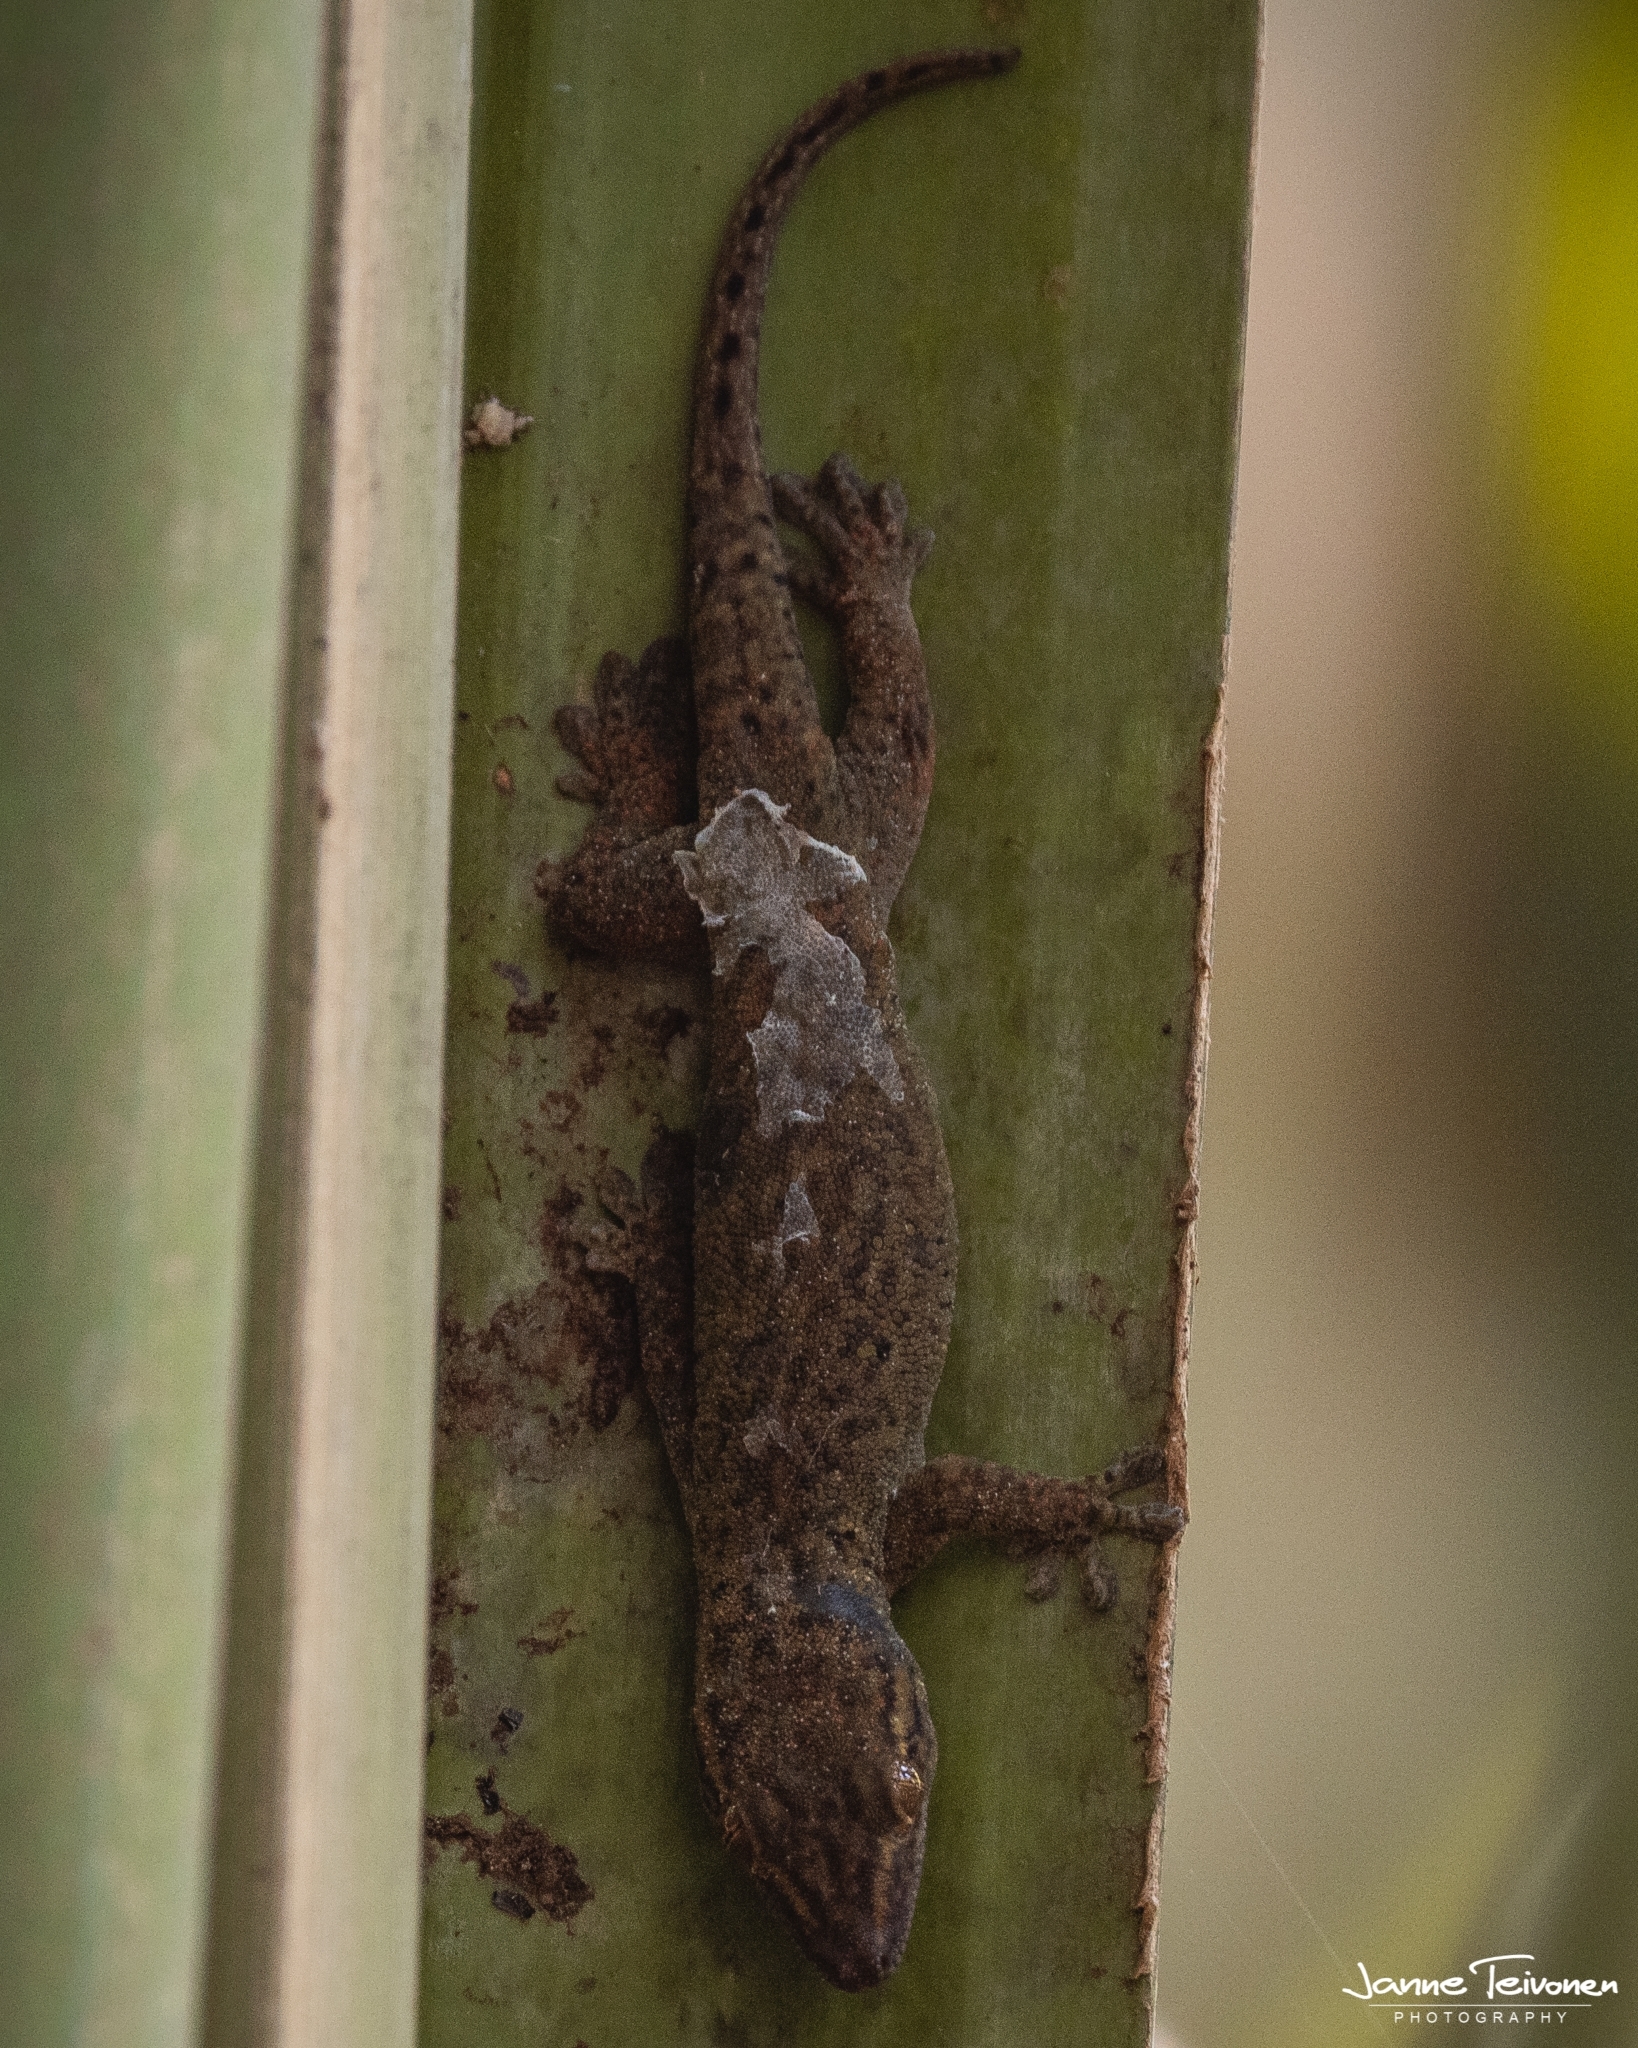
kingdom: Animalia
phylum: Chordata
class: Squamata
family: Gekkonidae
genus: Ailuronyx
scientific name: Ailuronyx tachyscopaeus
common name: Dwarf bronze gecko
